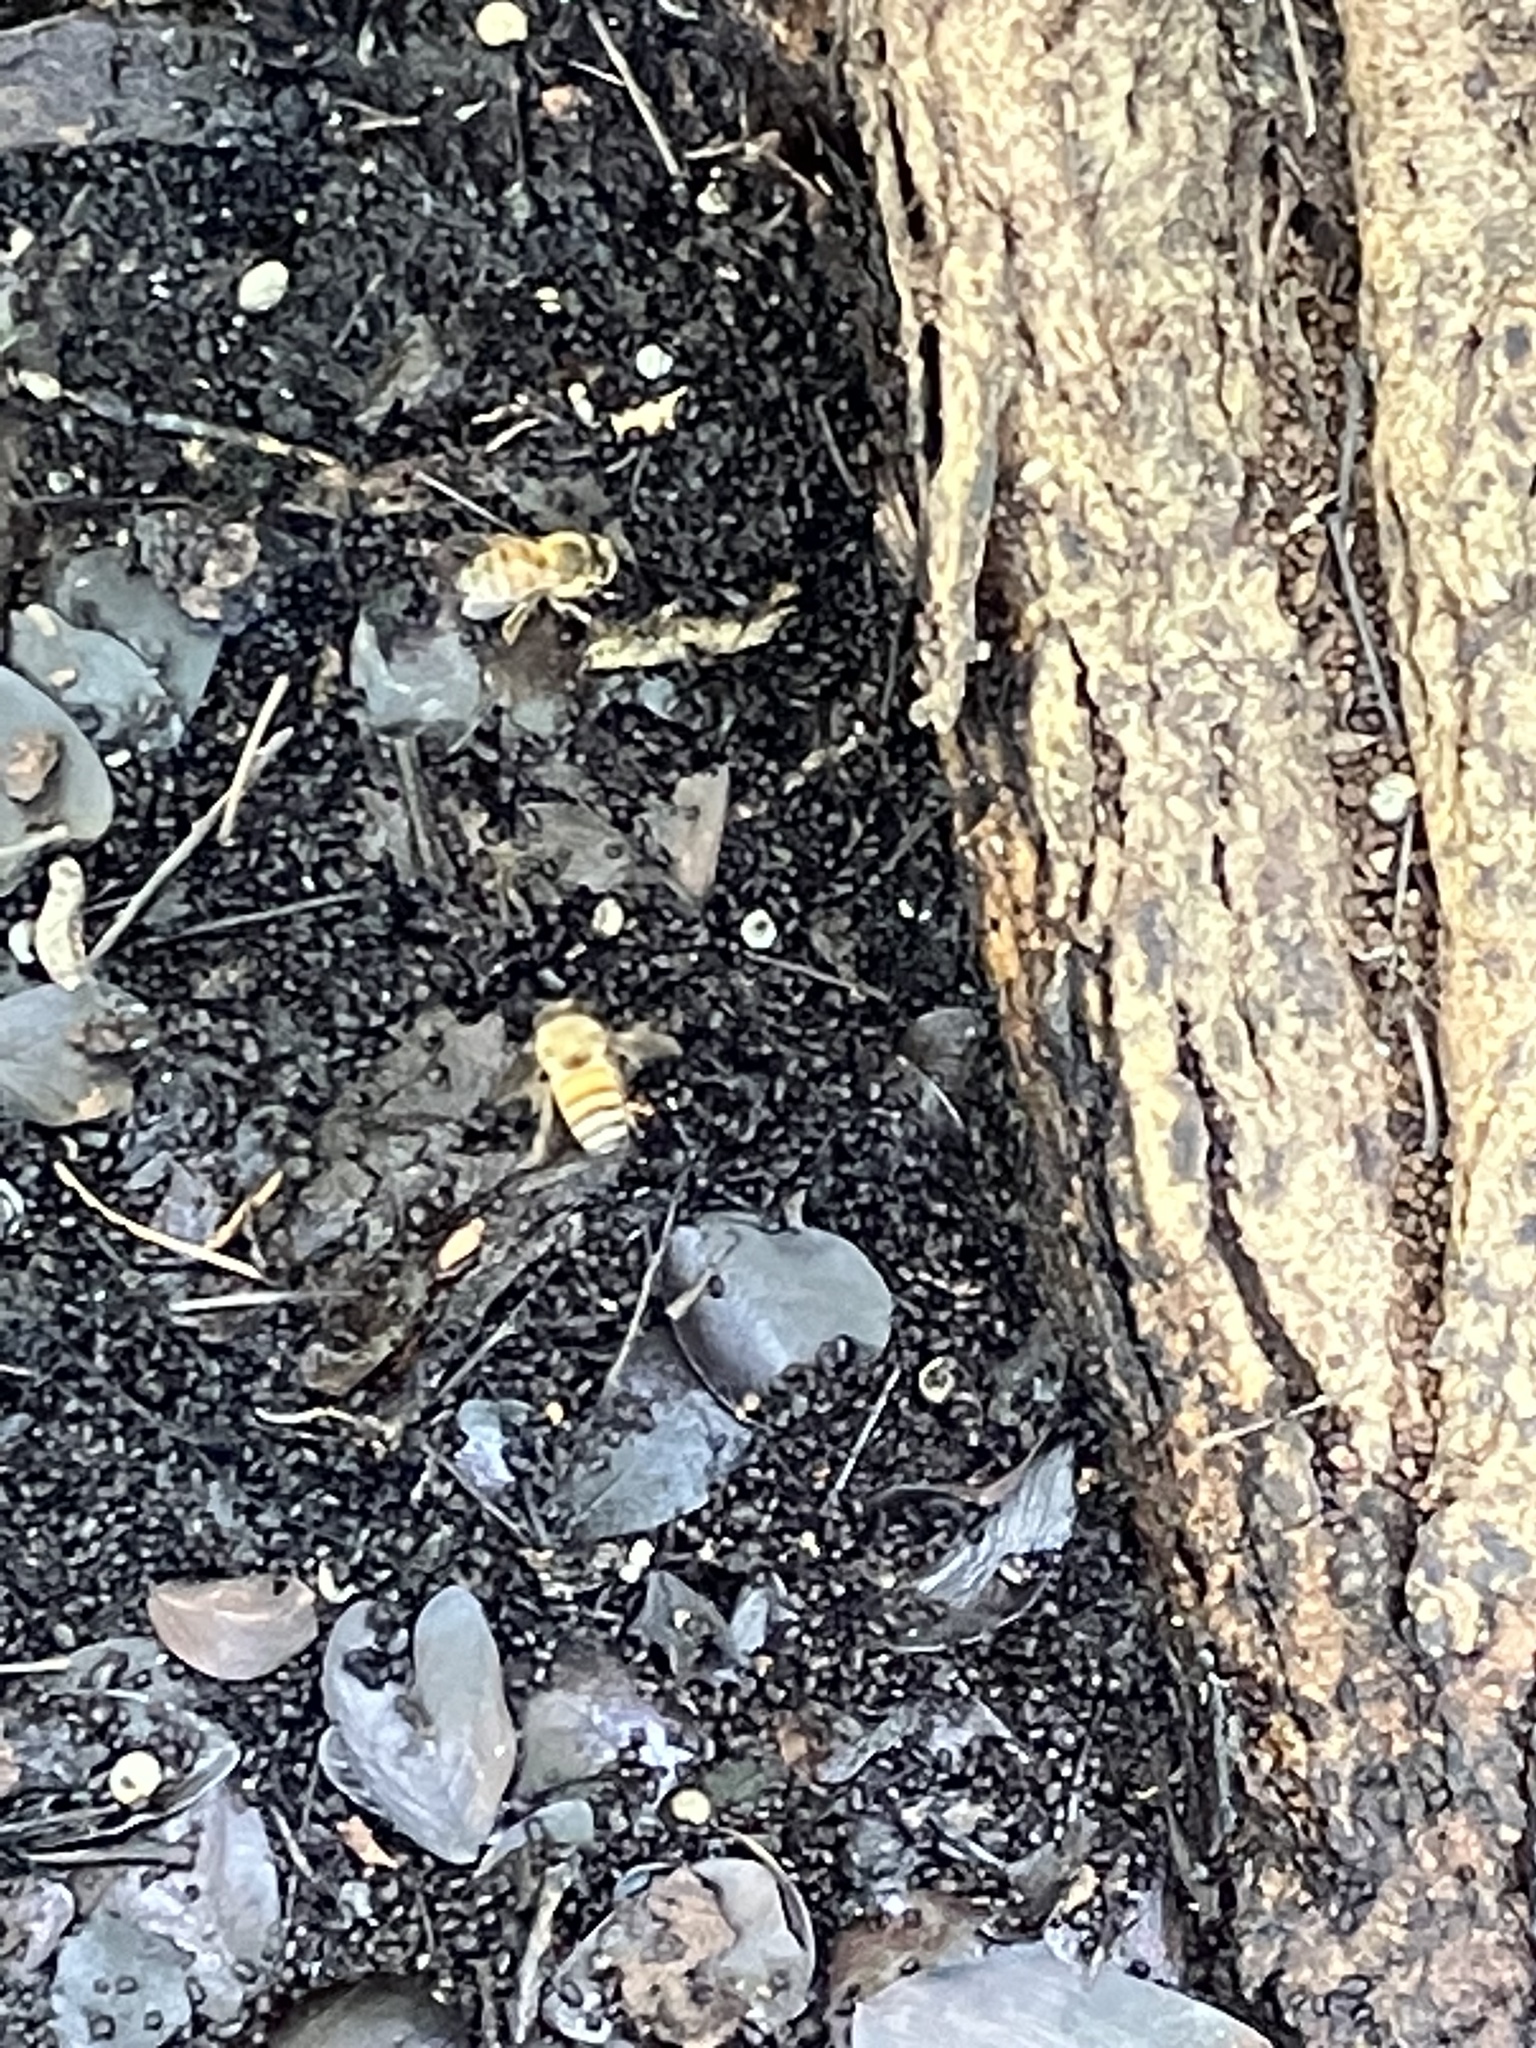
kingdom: Animalia
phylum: Arthropoda
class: Insecta
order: Hymenoptera
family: Apidae
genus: Apis
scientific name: Apis mellifera
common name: Honey bee
